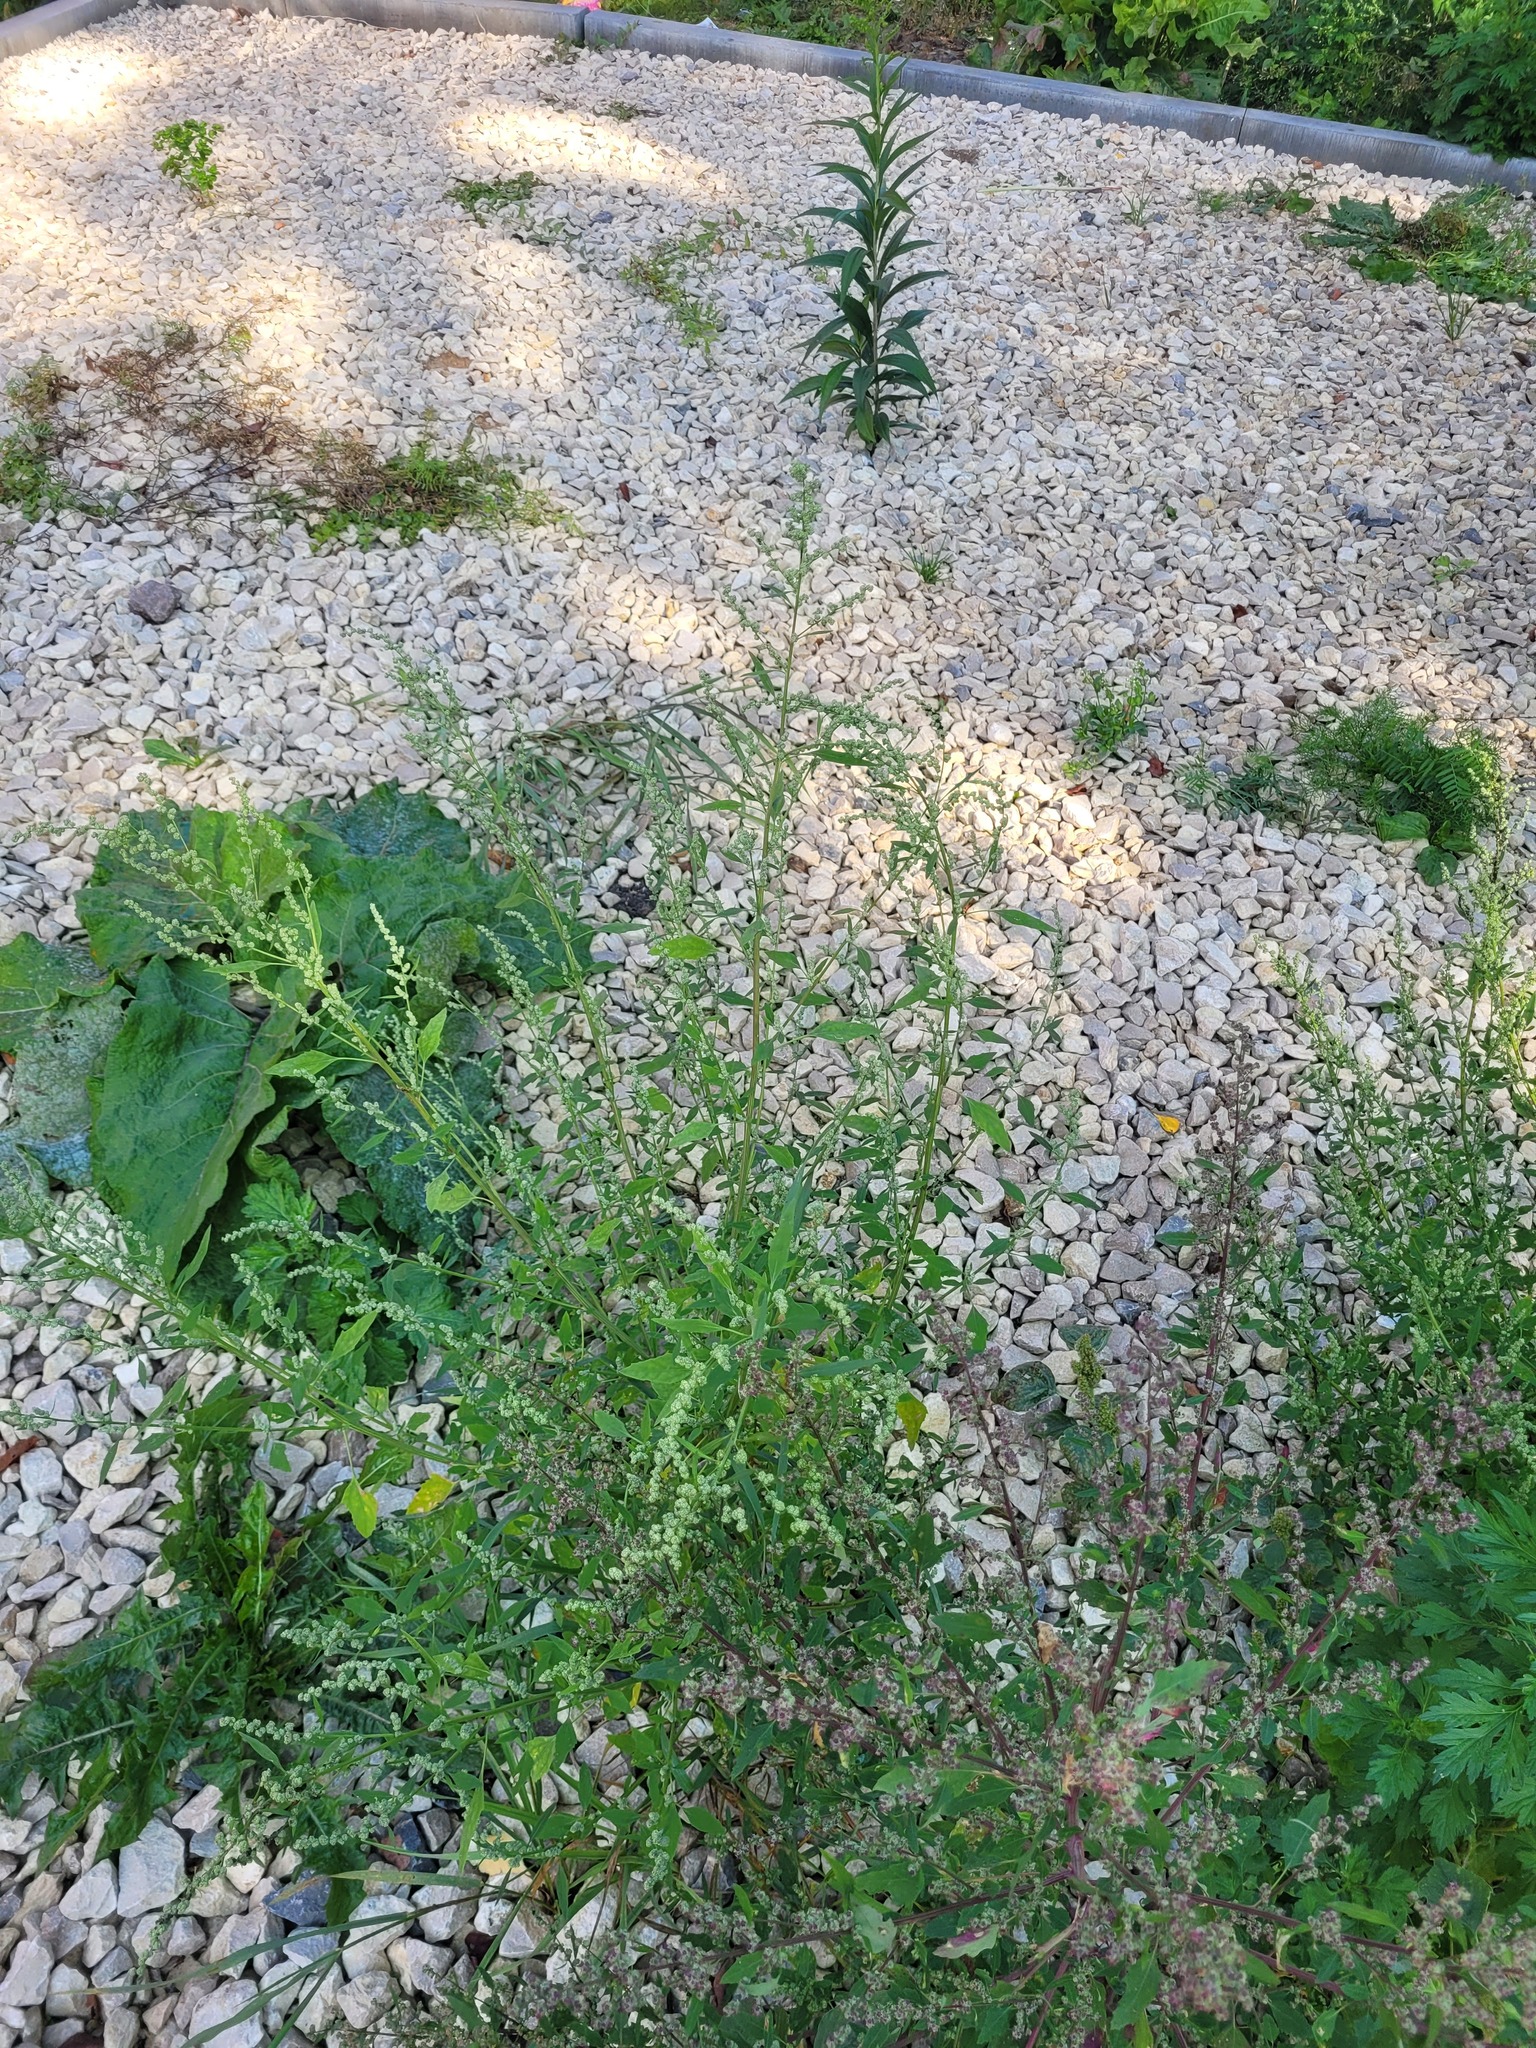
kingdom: Plantae
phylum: Tracheophyta
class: Magnoliopsida
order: Caryophyllales
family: Amaranthaceae
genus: Chenopodium
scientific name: Chenopodium album
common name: Fat-hen
